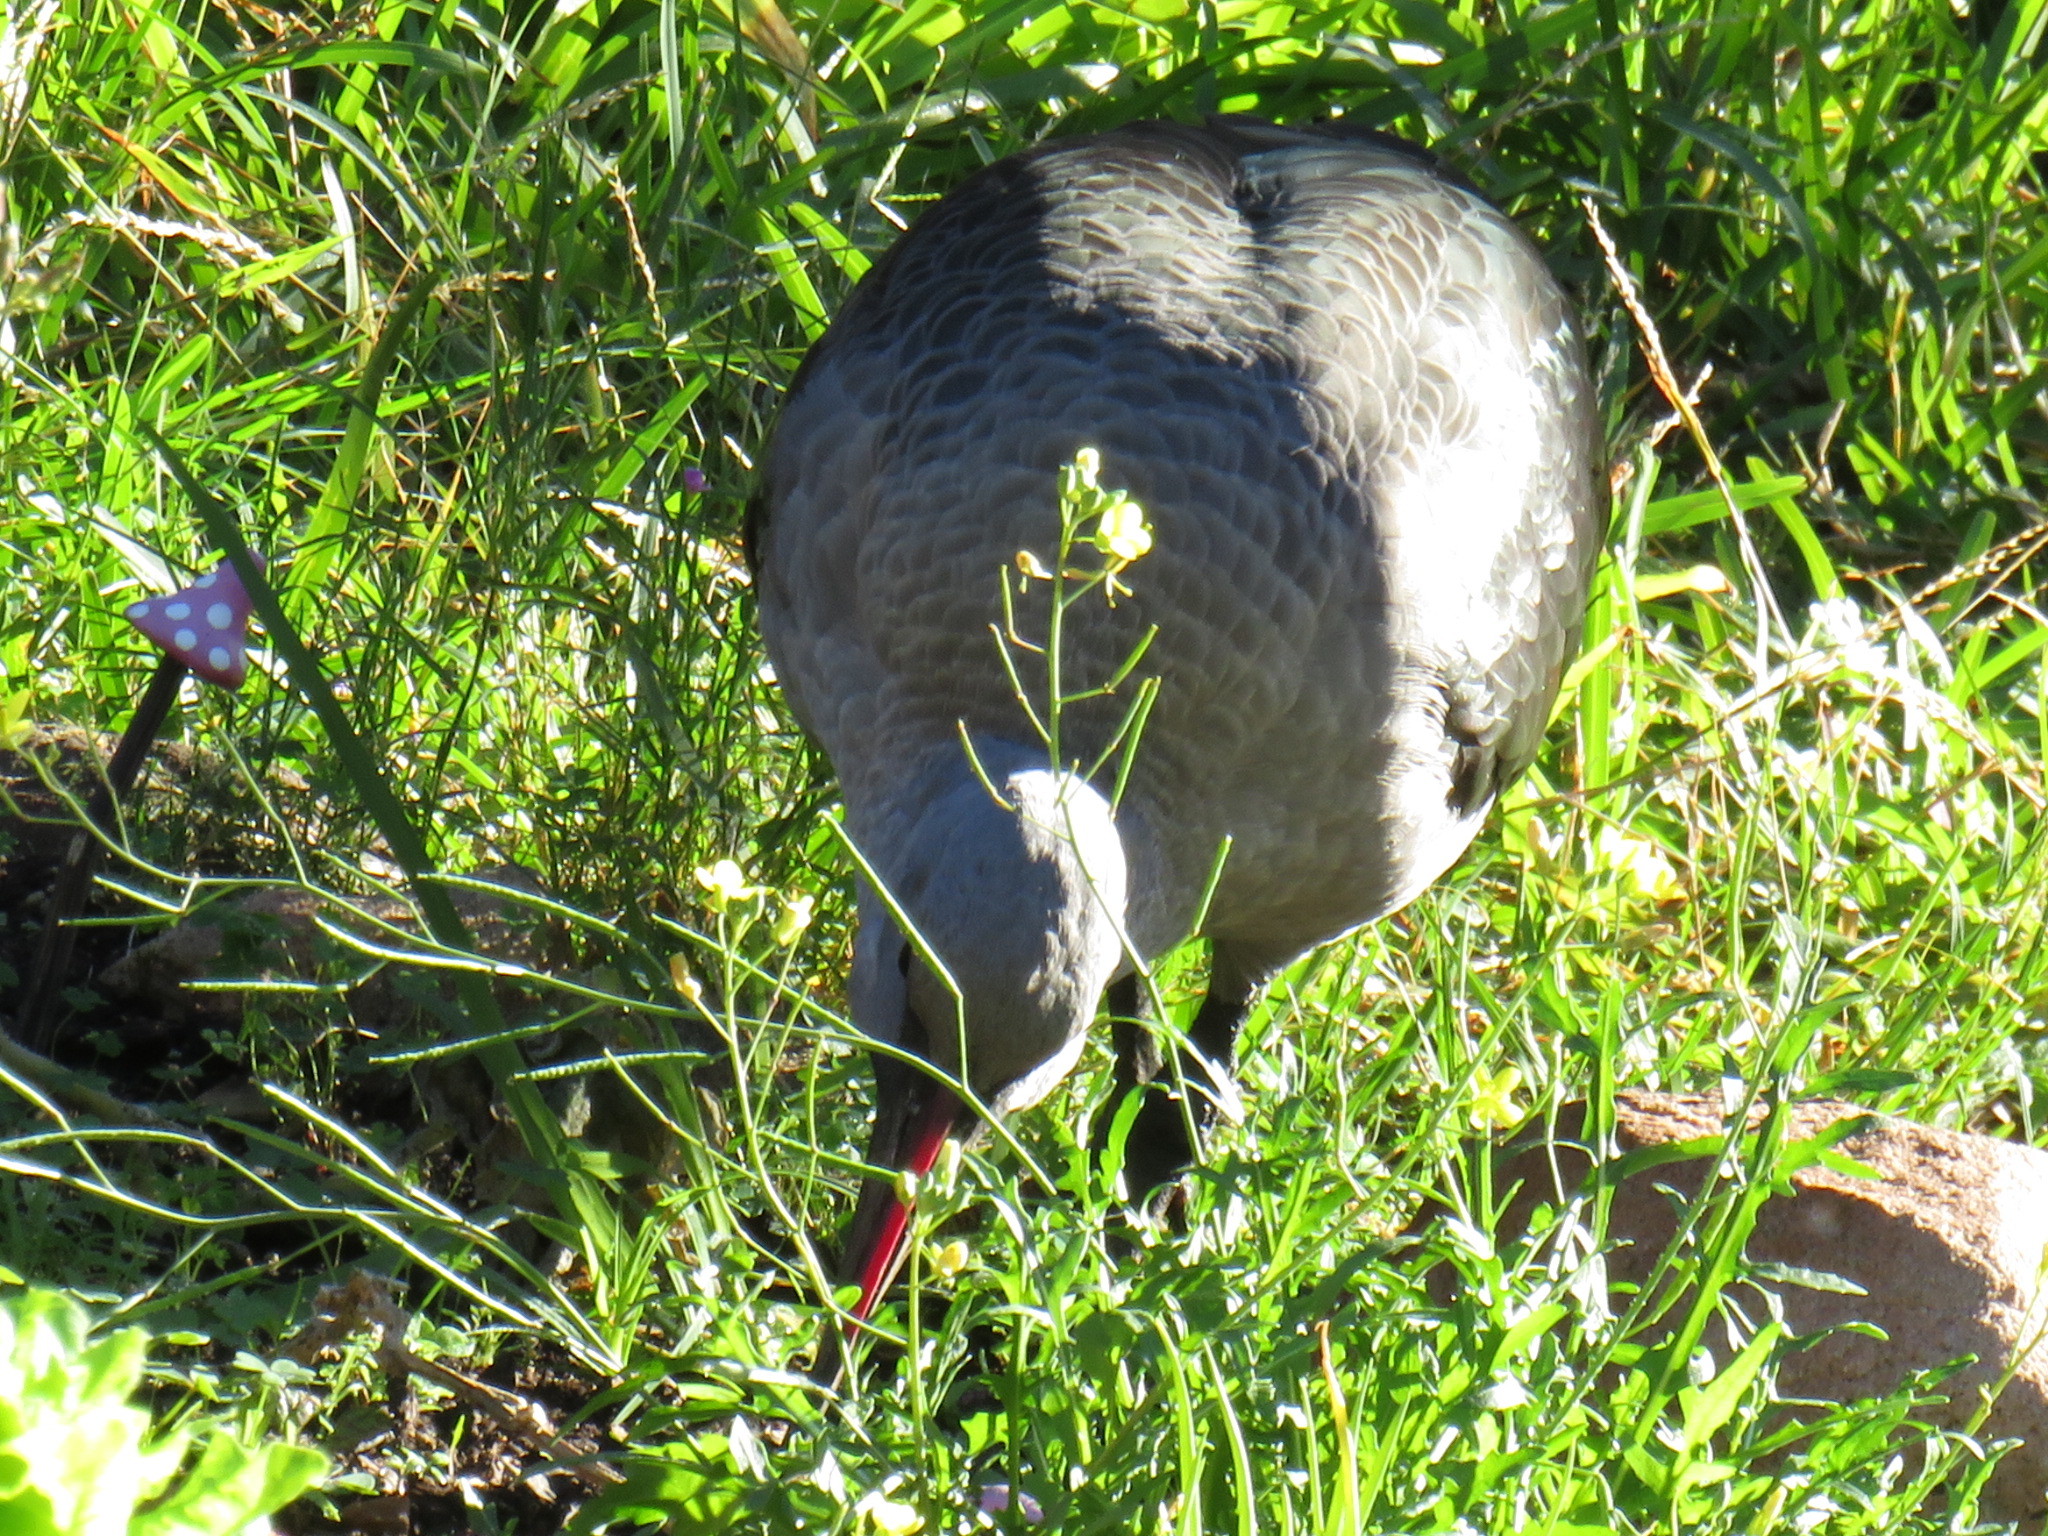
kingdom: Animalia
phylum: Chordata
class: Aves
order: Pelecaniformes
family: Threskiornithidae
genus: Bostrychia
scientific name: Bostrychia hagedash
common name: Hadada ibis
